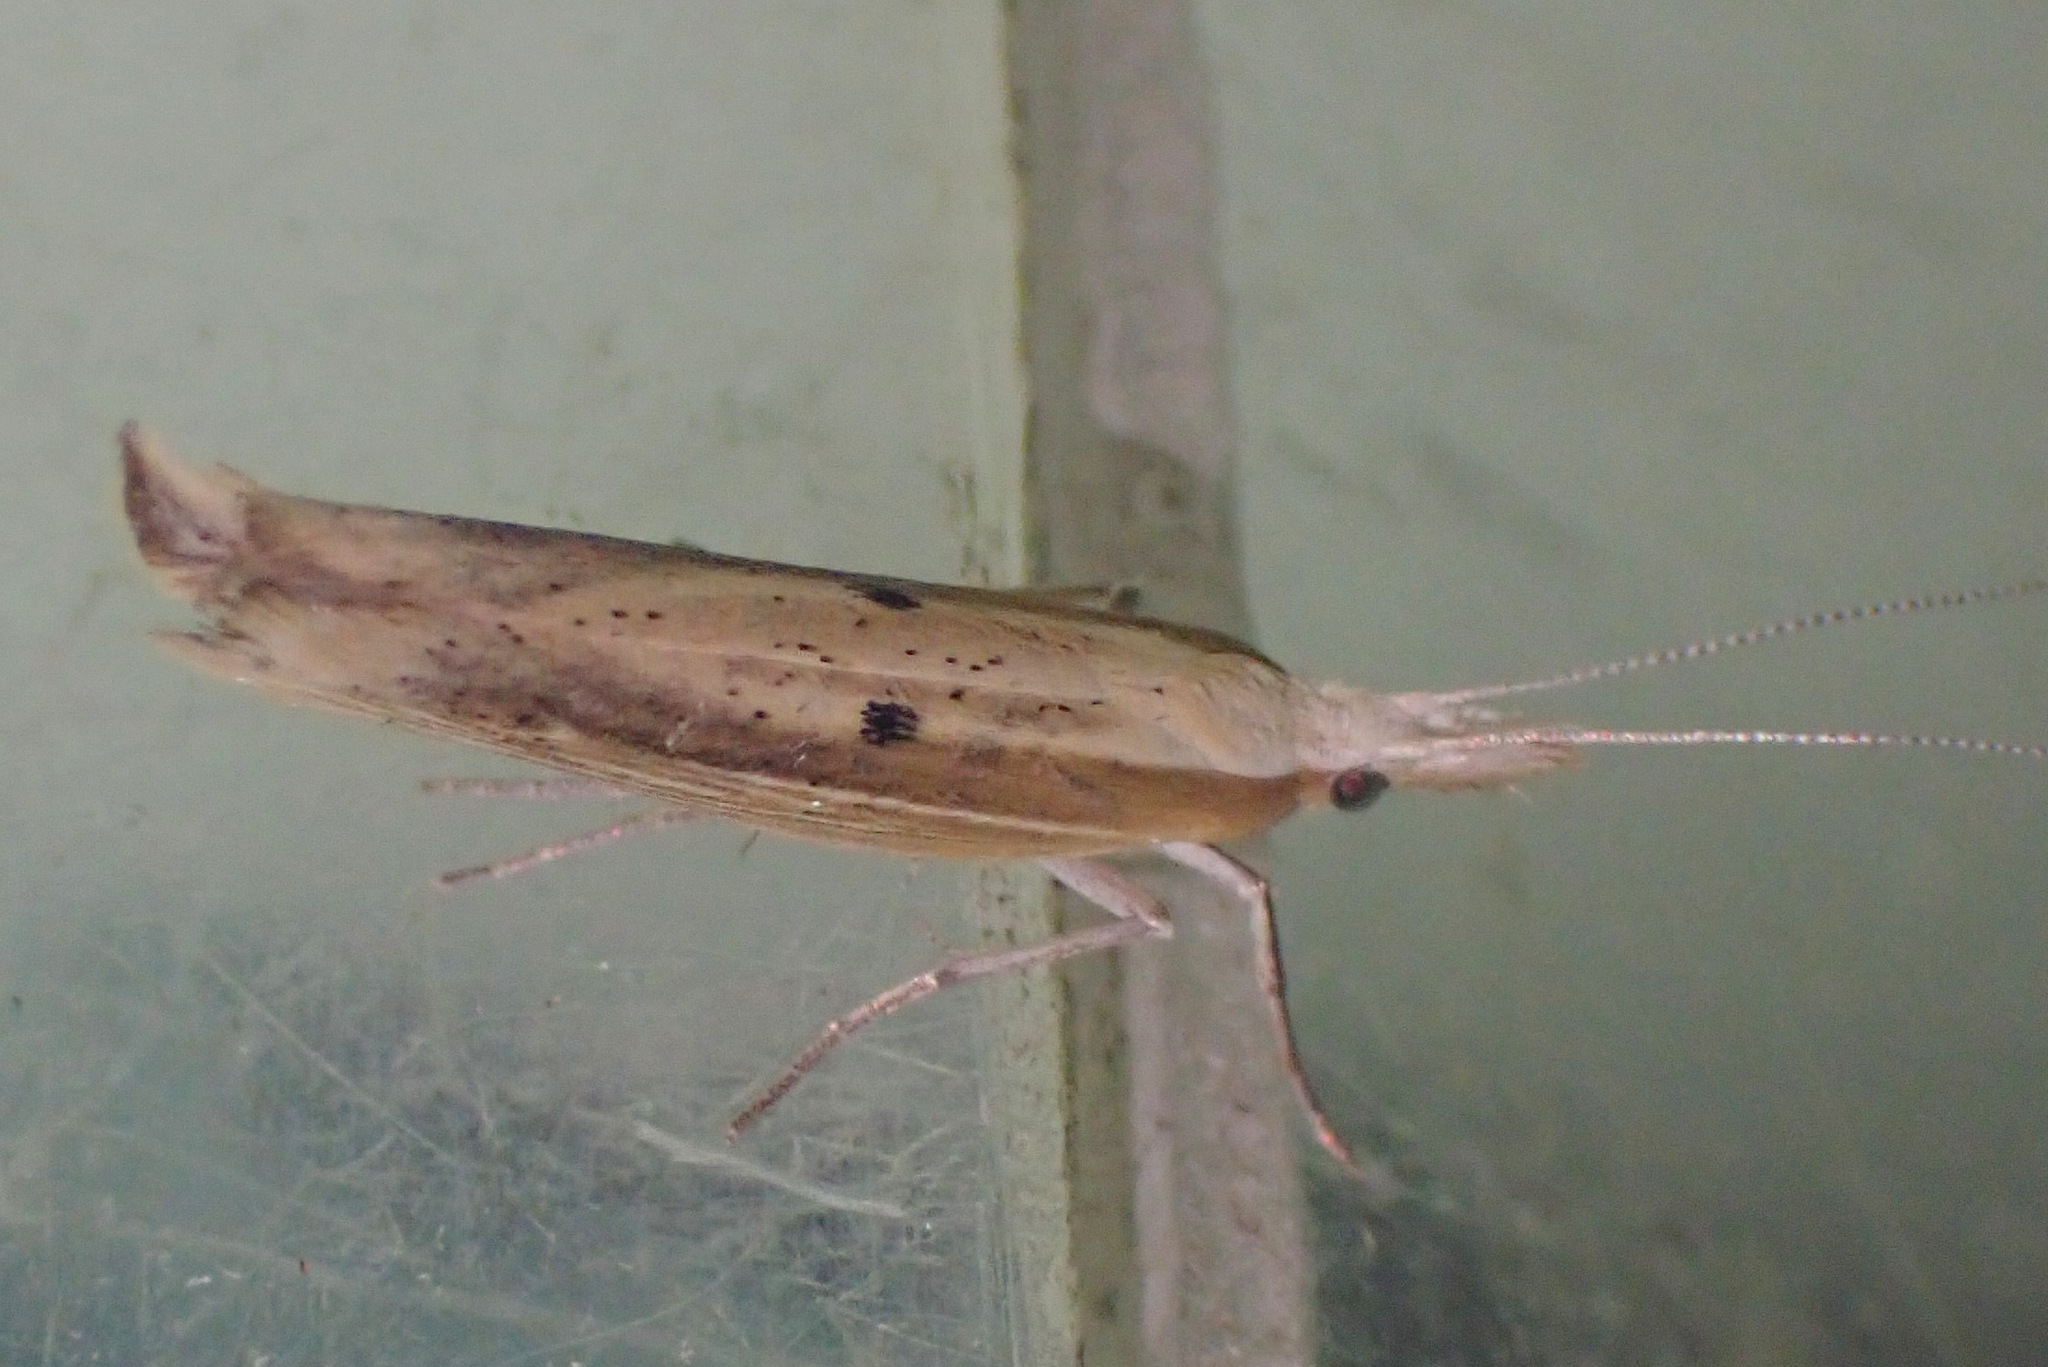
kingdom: Animalia
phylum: Arthropoda
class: Insecta
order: Lepidoptera
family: Ypsolophidae
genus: Ypsolopha
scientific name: Ypsolopha nemorella
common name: Hooked smudge
